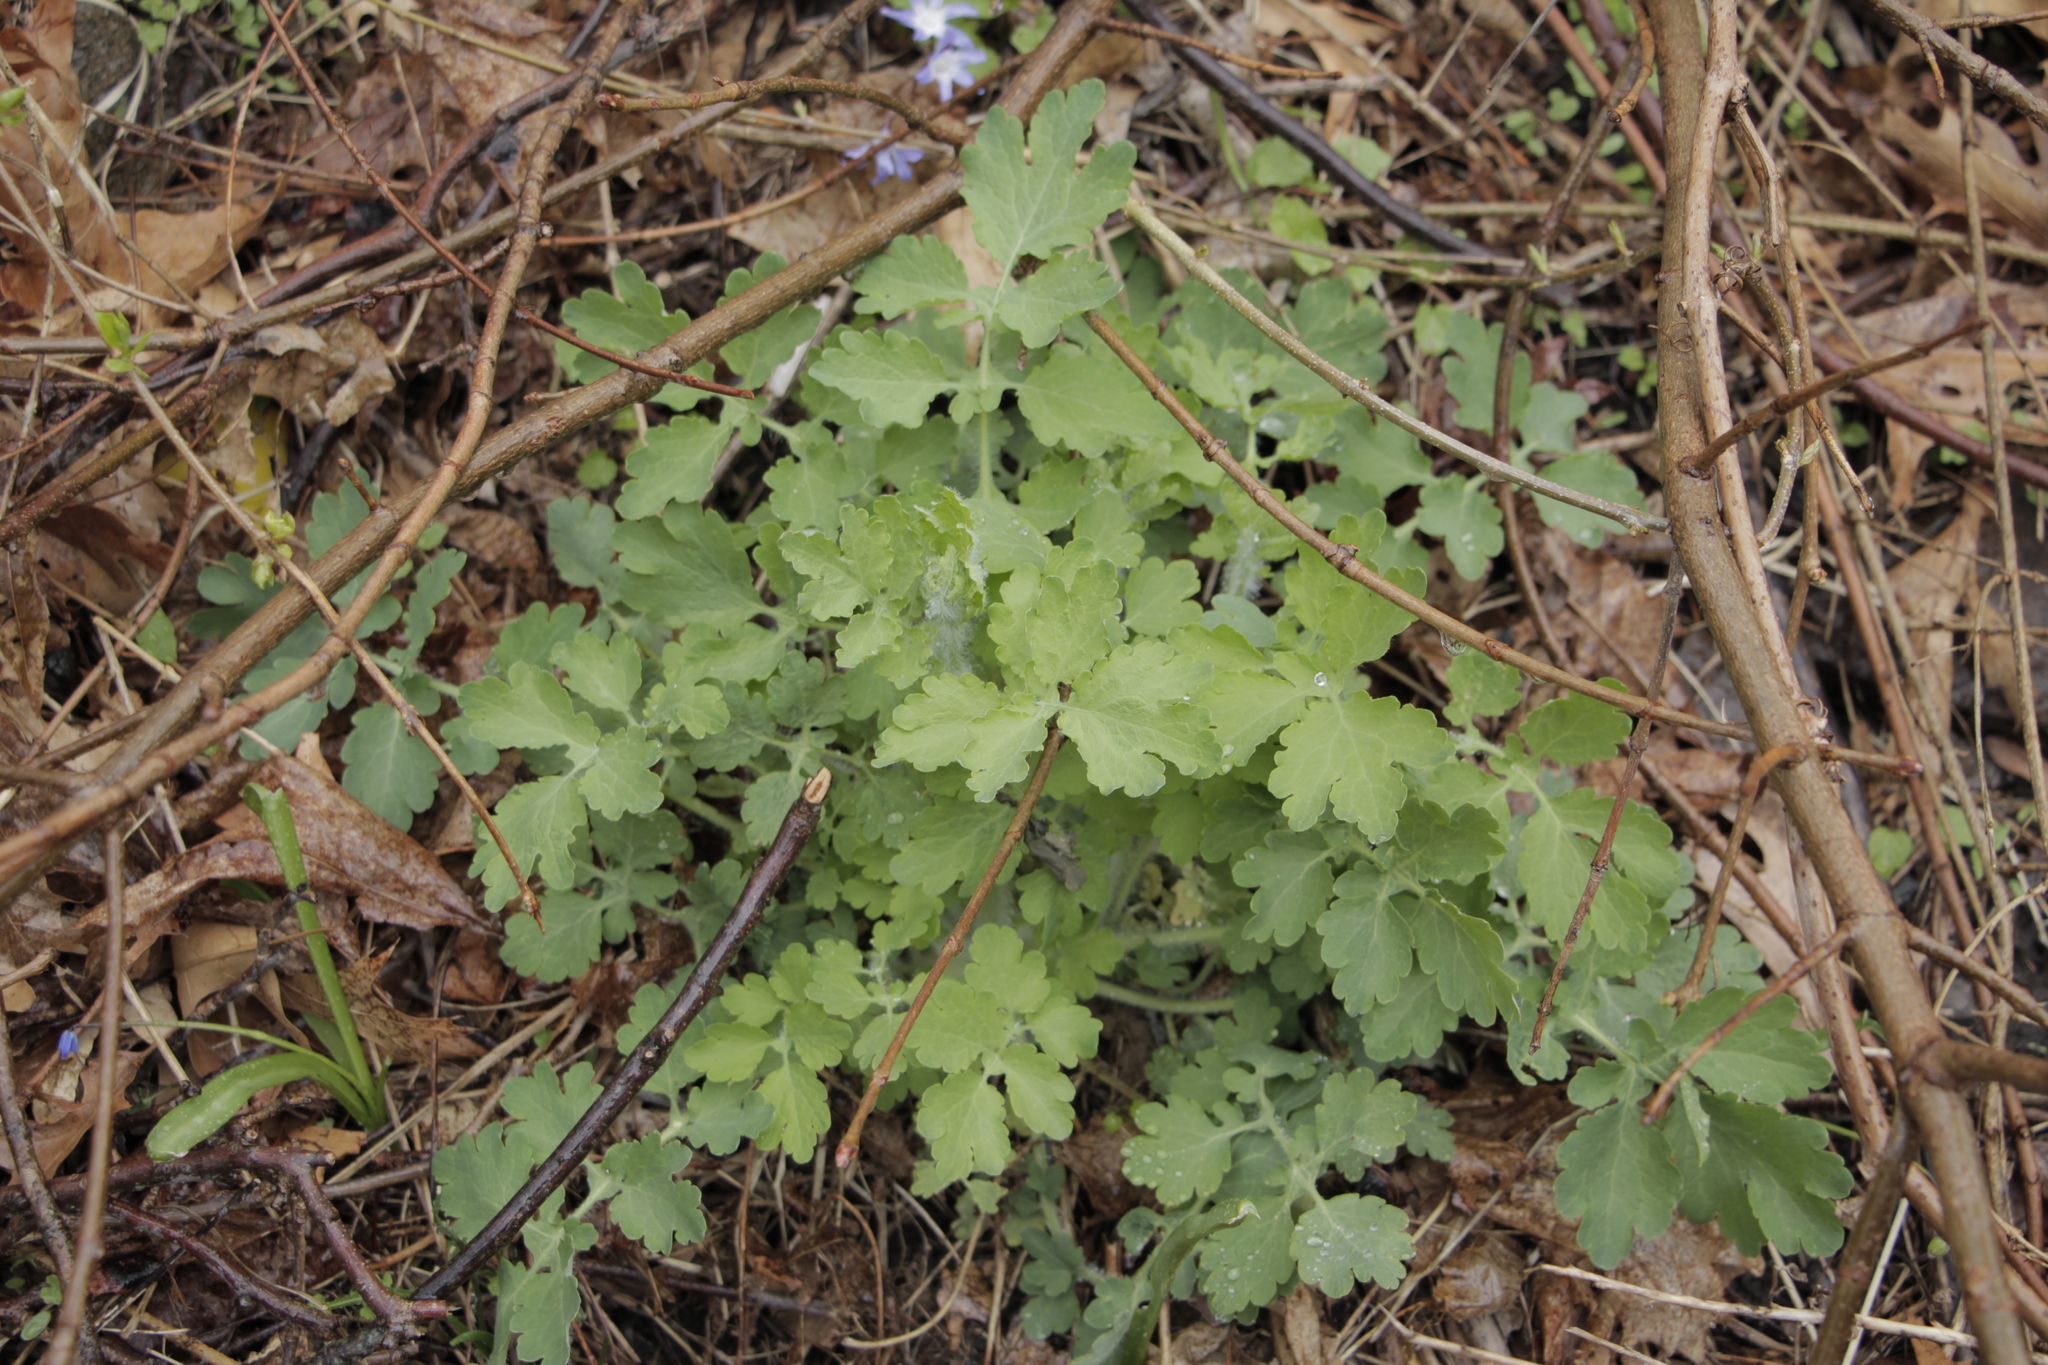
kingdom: Plantae
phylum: Tracheophyta
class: Magnoliopsida
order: Ranunculales
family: Papaveraceae
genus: Chelidonium
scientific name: Chelidonium majus
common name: Greater celandine
